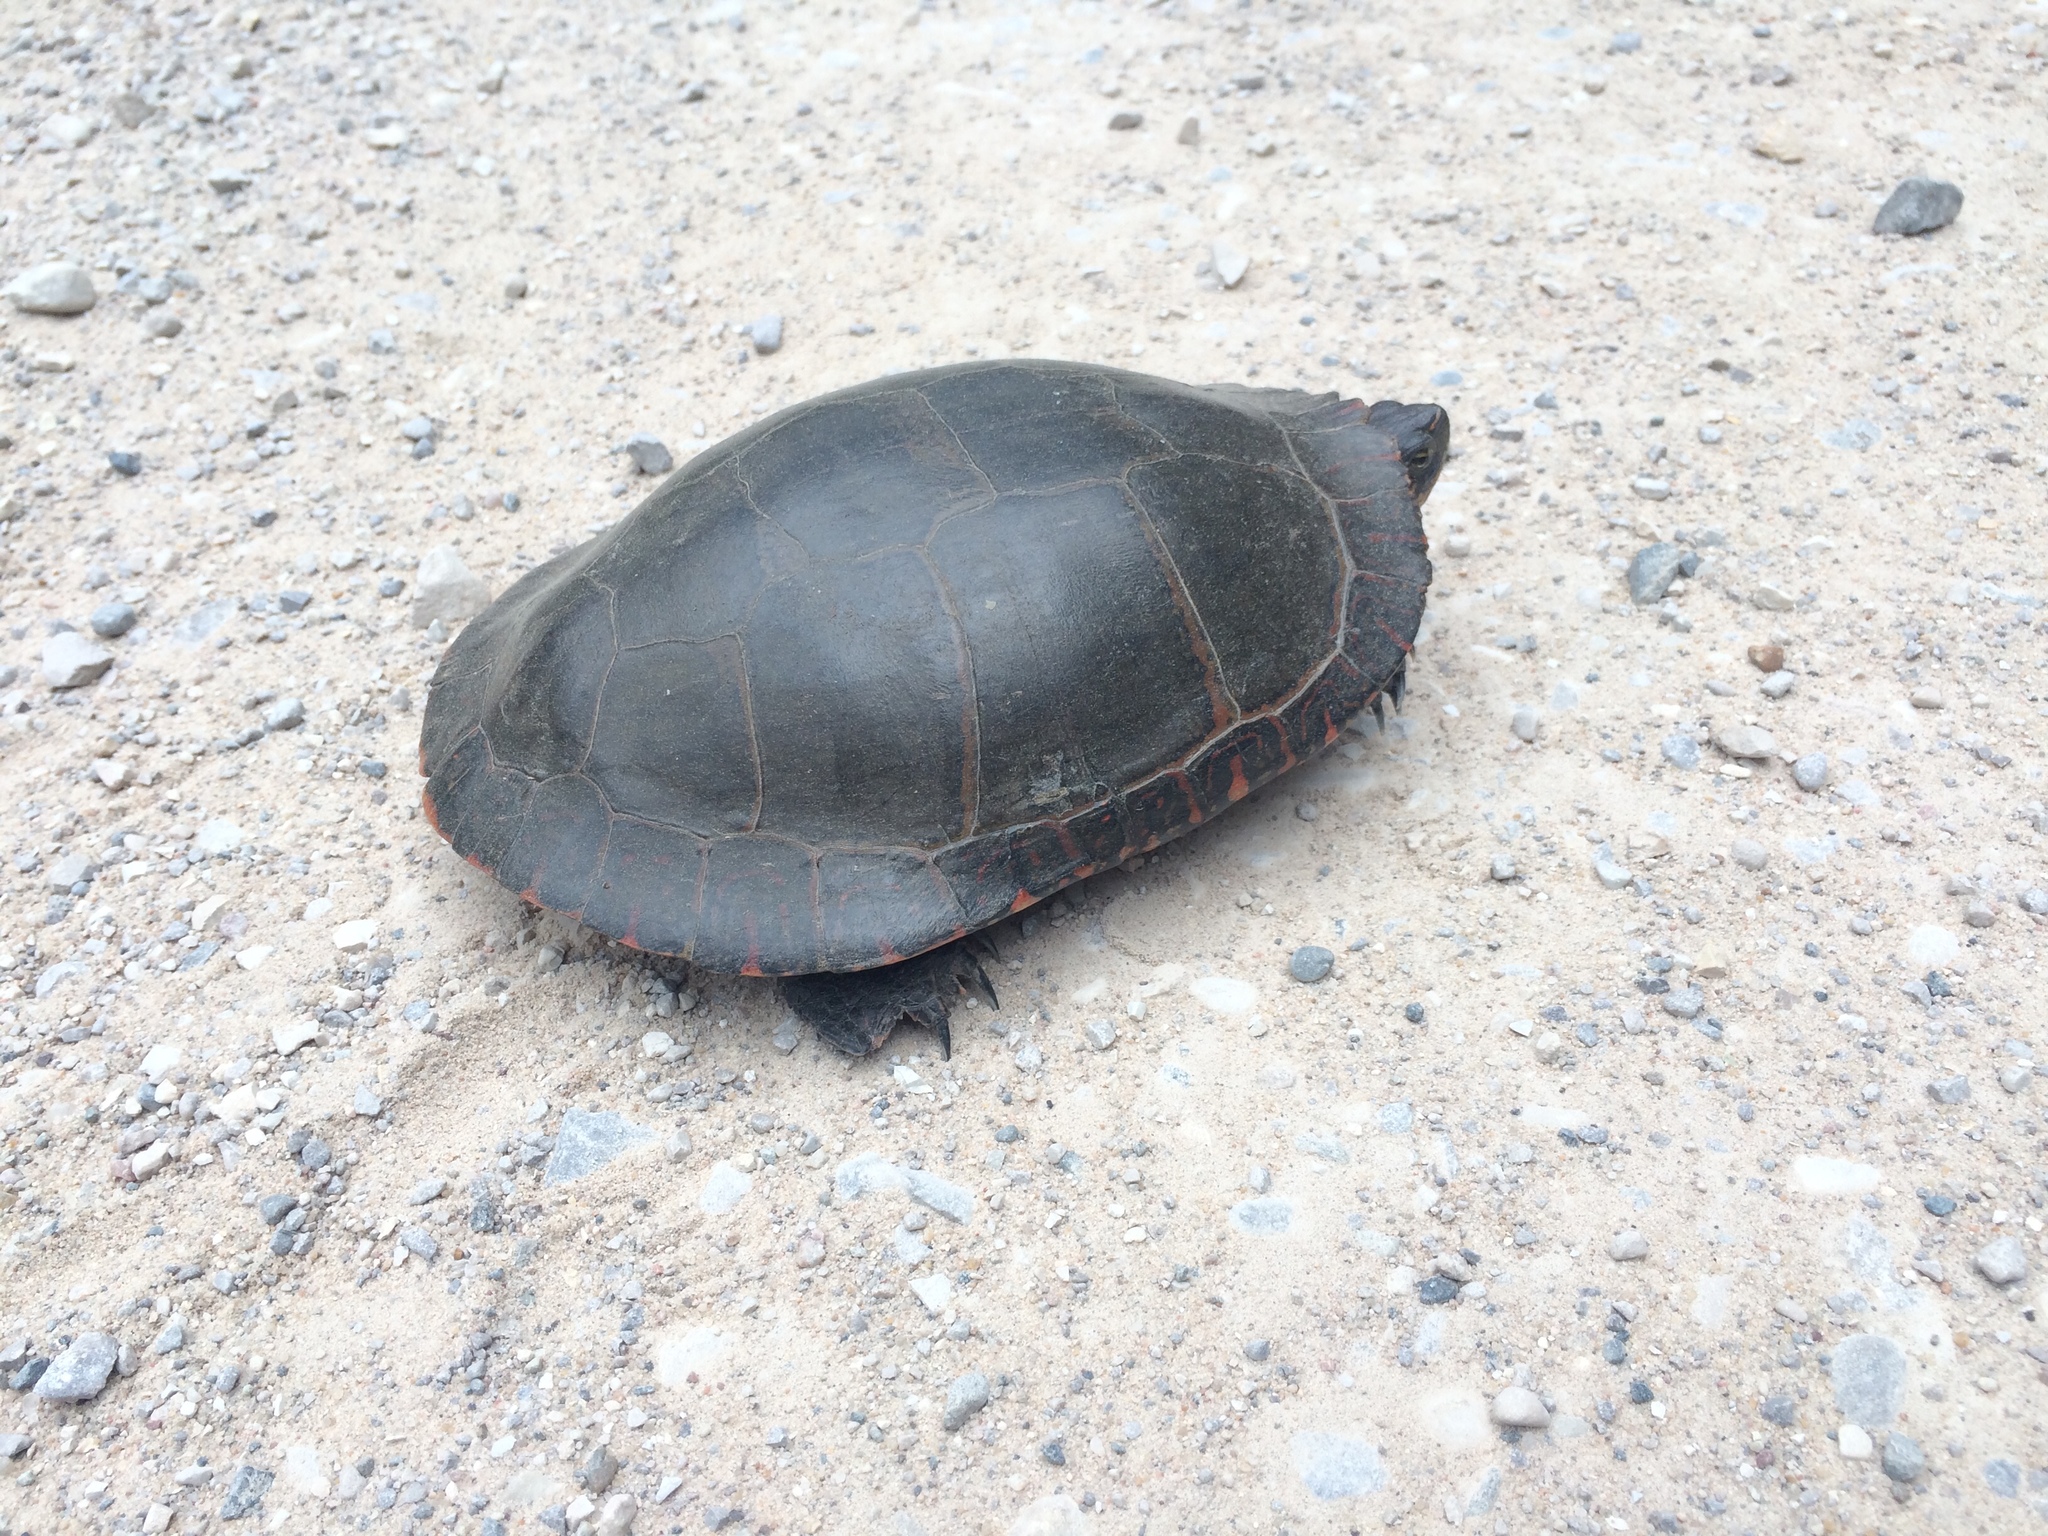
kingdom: Animalia
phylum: Chordata
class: Testudines
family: Emydidae
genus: Chrysemys
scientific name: Chrysemys picta
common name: Painted turtle
